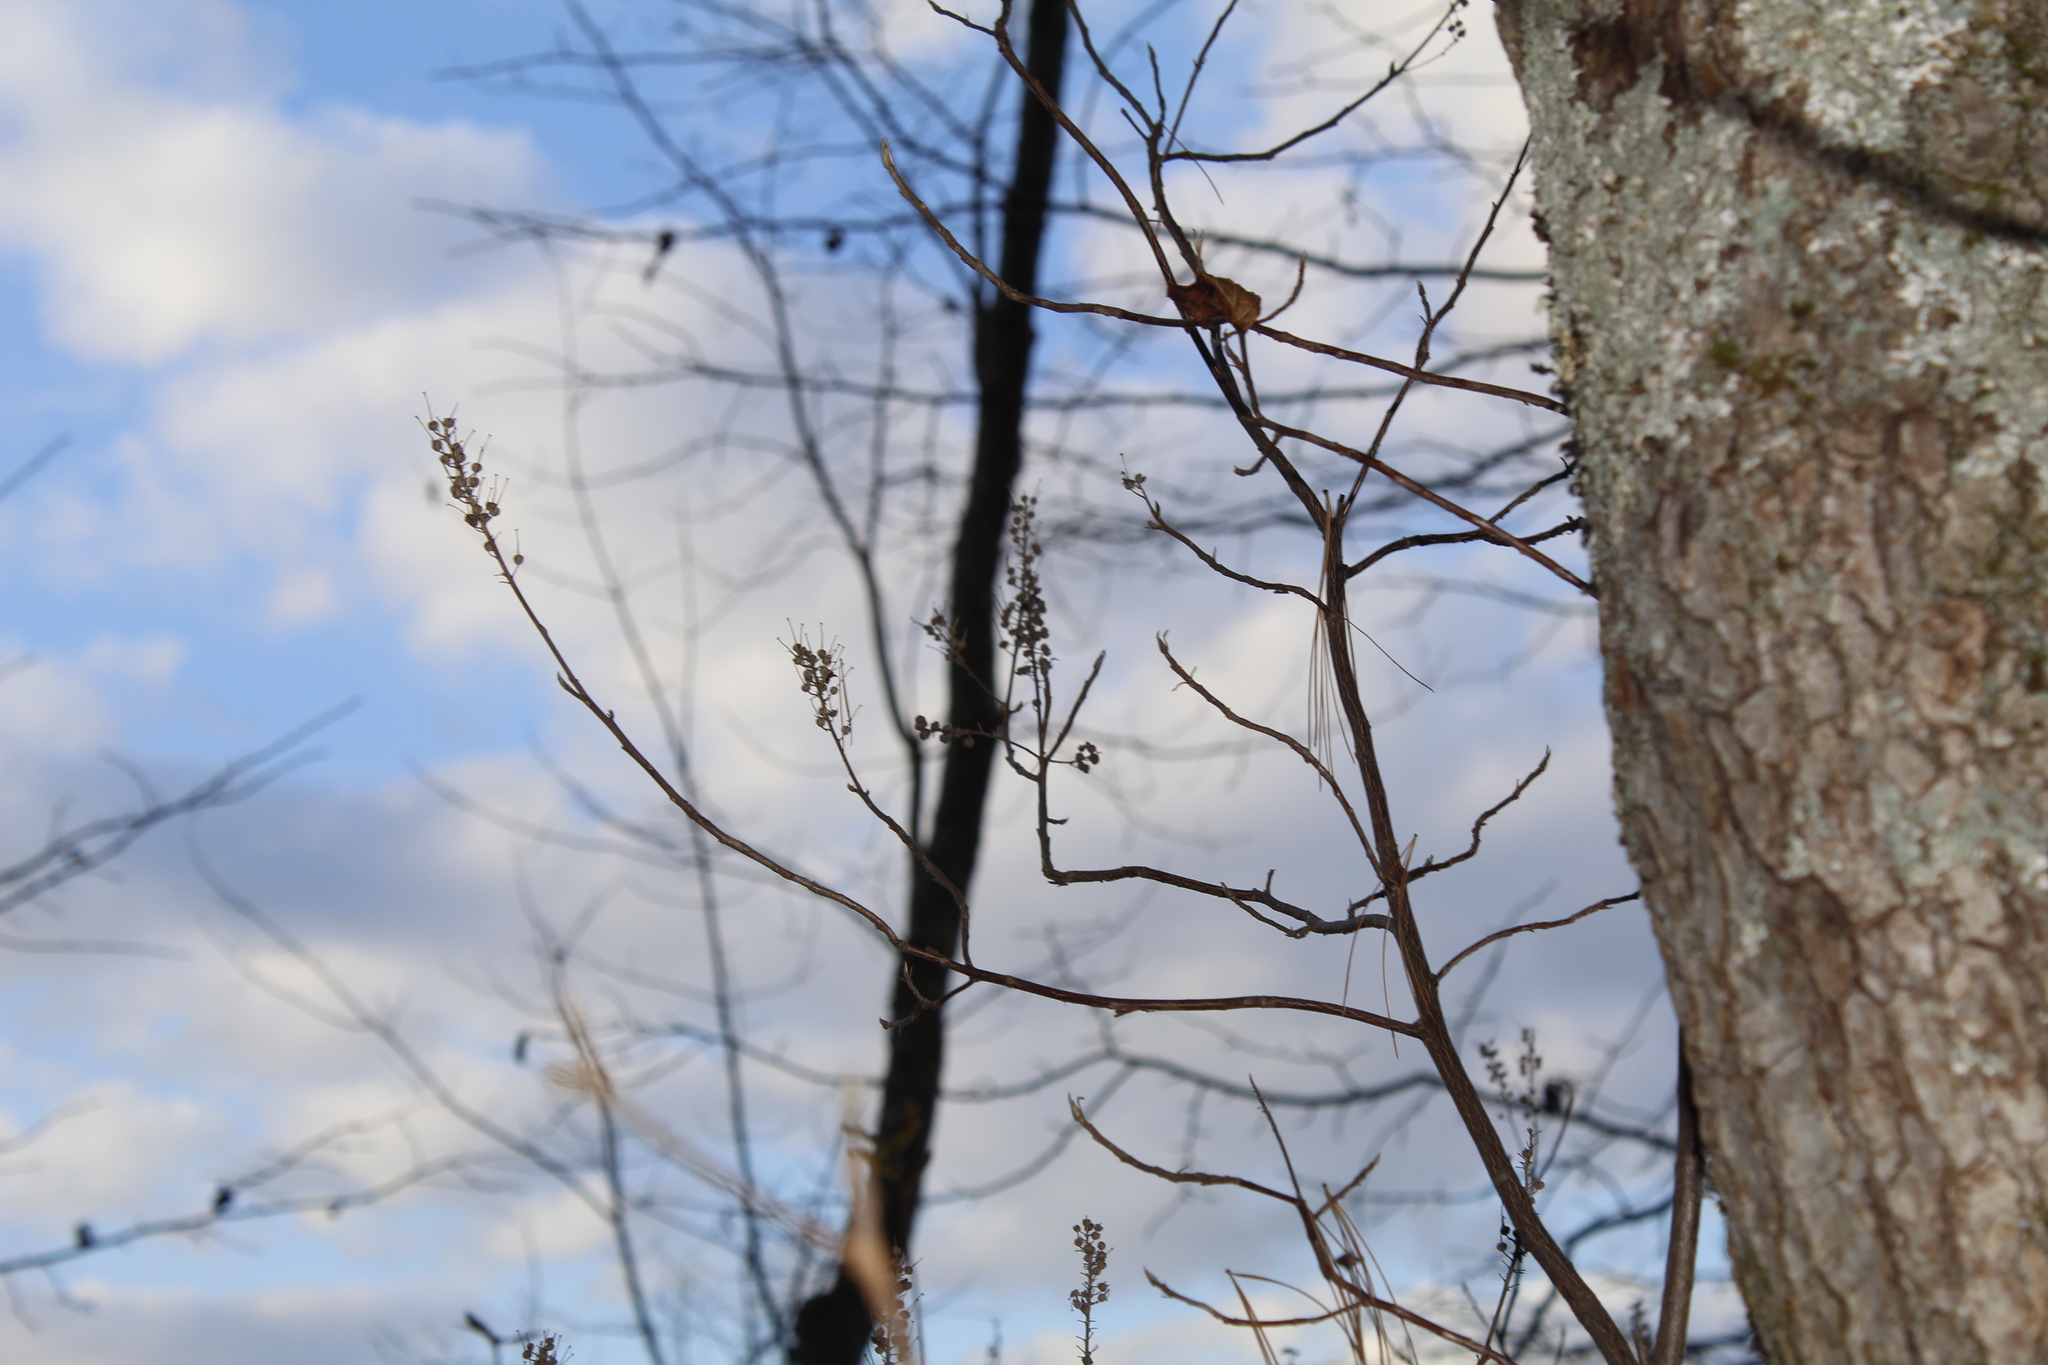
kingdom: Plantae
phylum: Tracheophyta
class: Magnoliopsida
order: Ericales
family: Clethraceae
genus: Clethra
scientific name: Clethra alnifolia
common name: Sweet pepperbush
